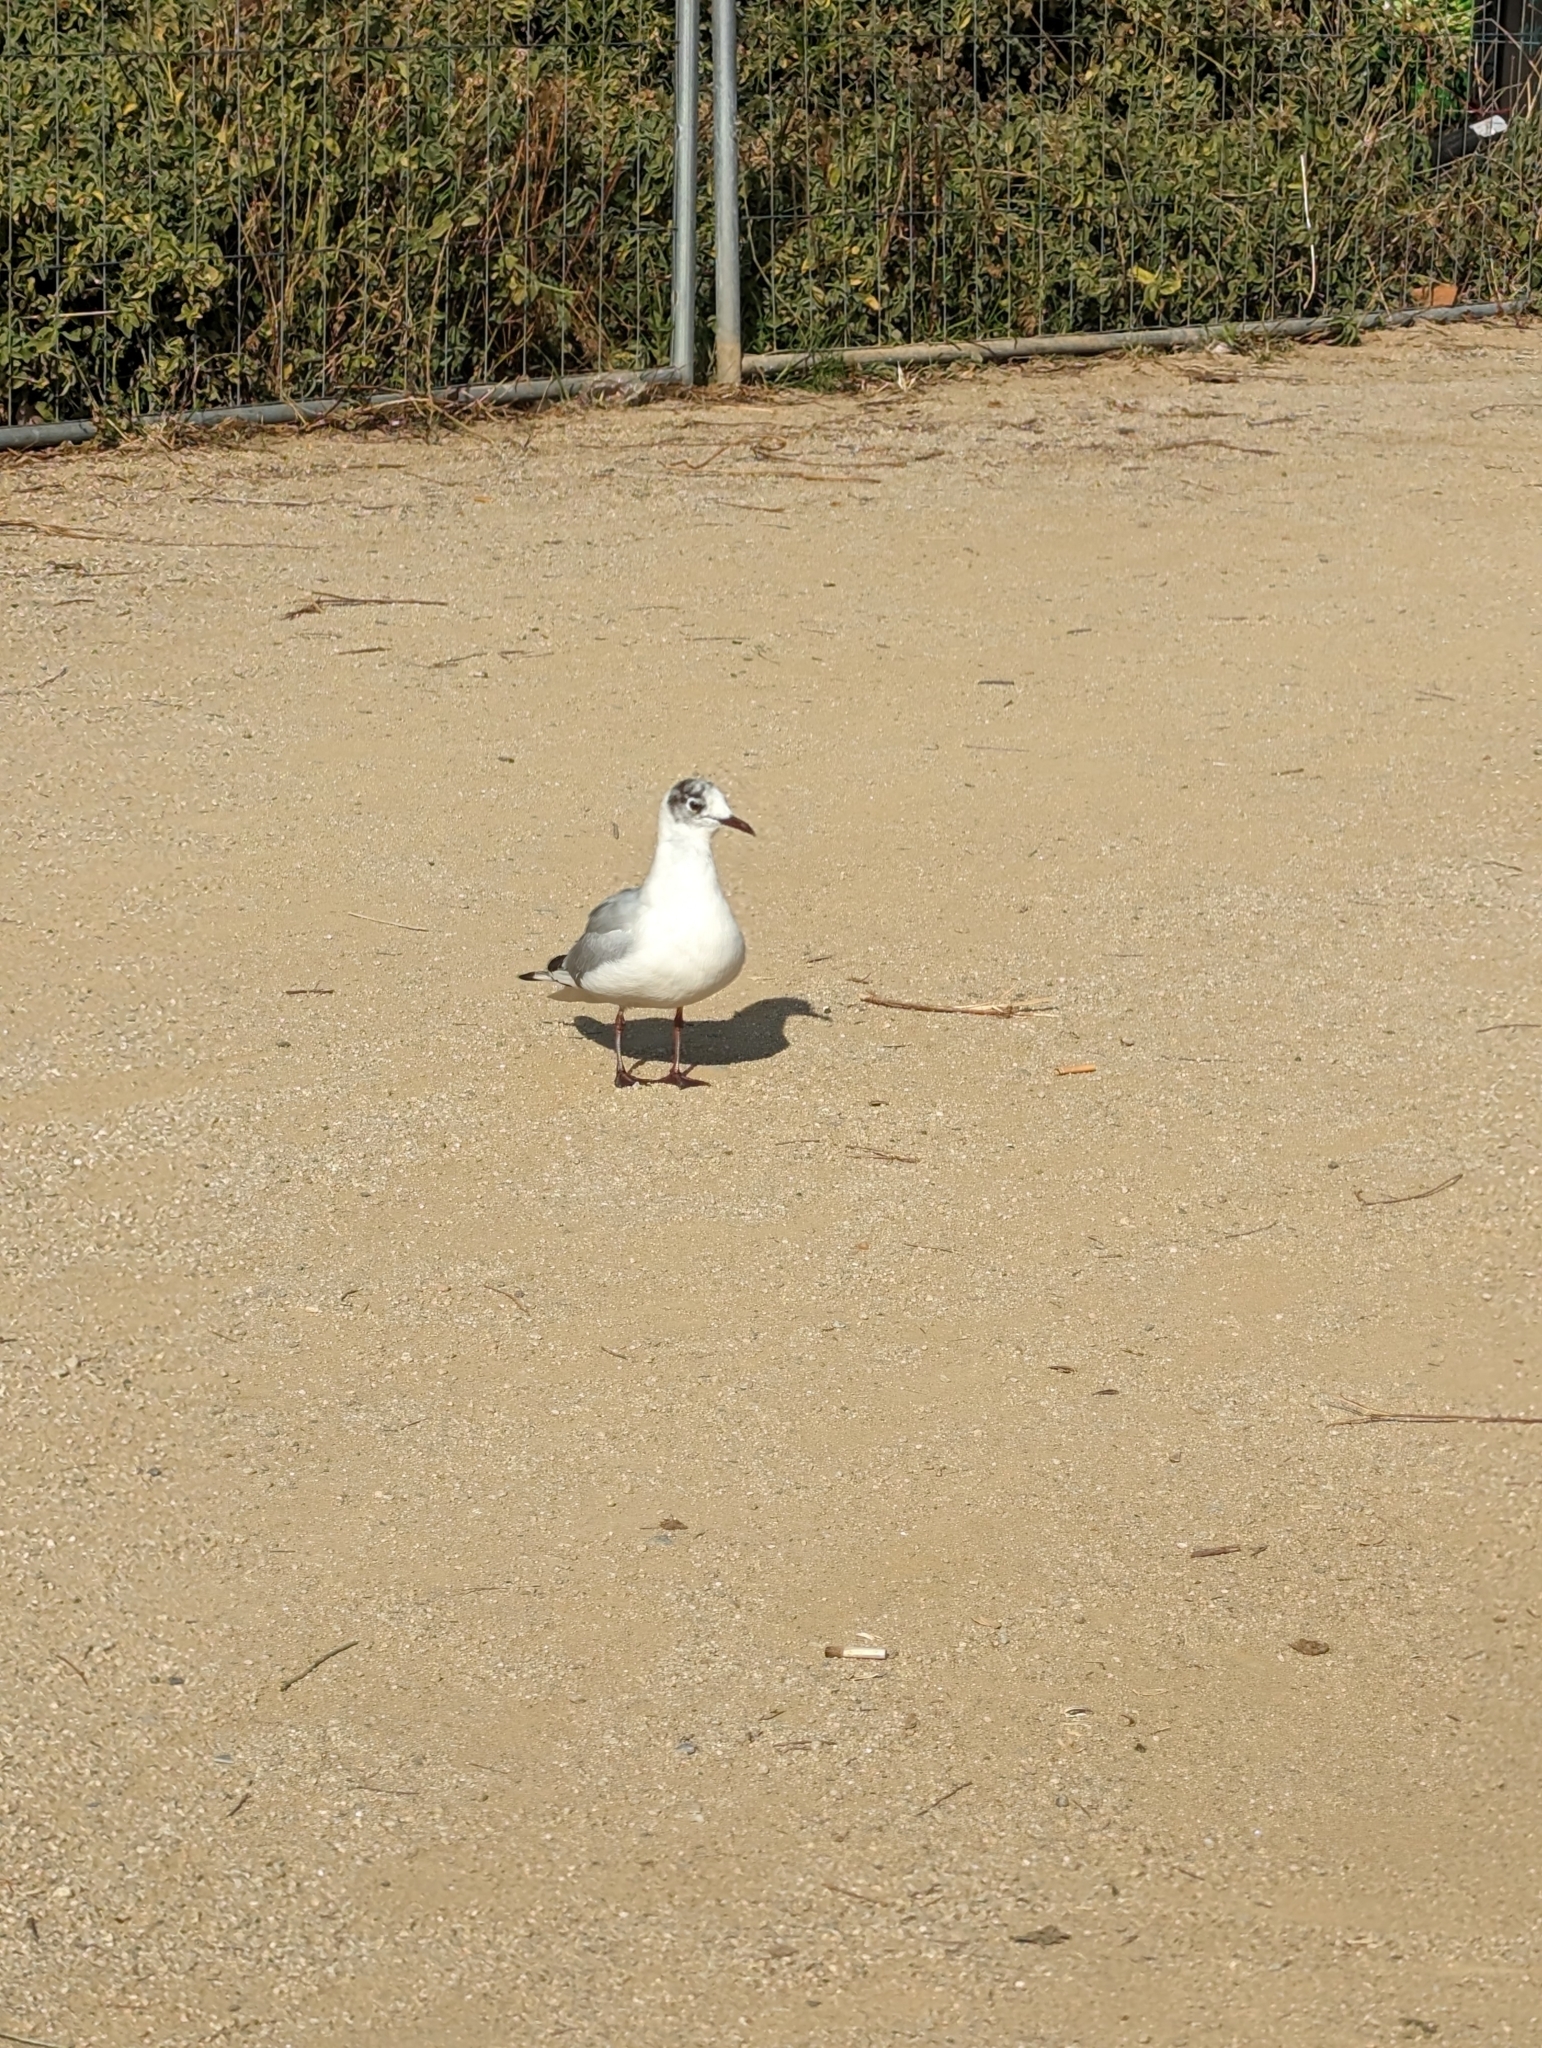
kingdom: Animalia
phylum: Chordata
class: Aves
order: Charadriiformes
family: Laridae
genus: Chroicocephalus
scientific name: Chroicocephalus ridibundus
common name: Black-headed gull
